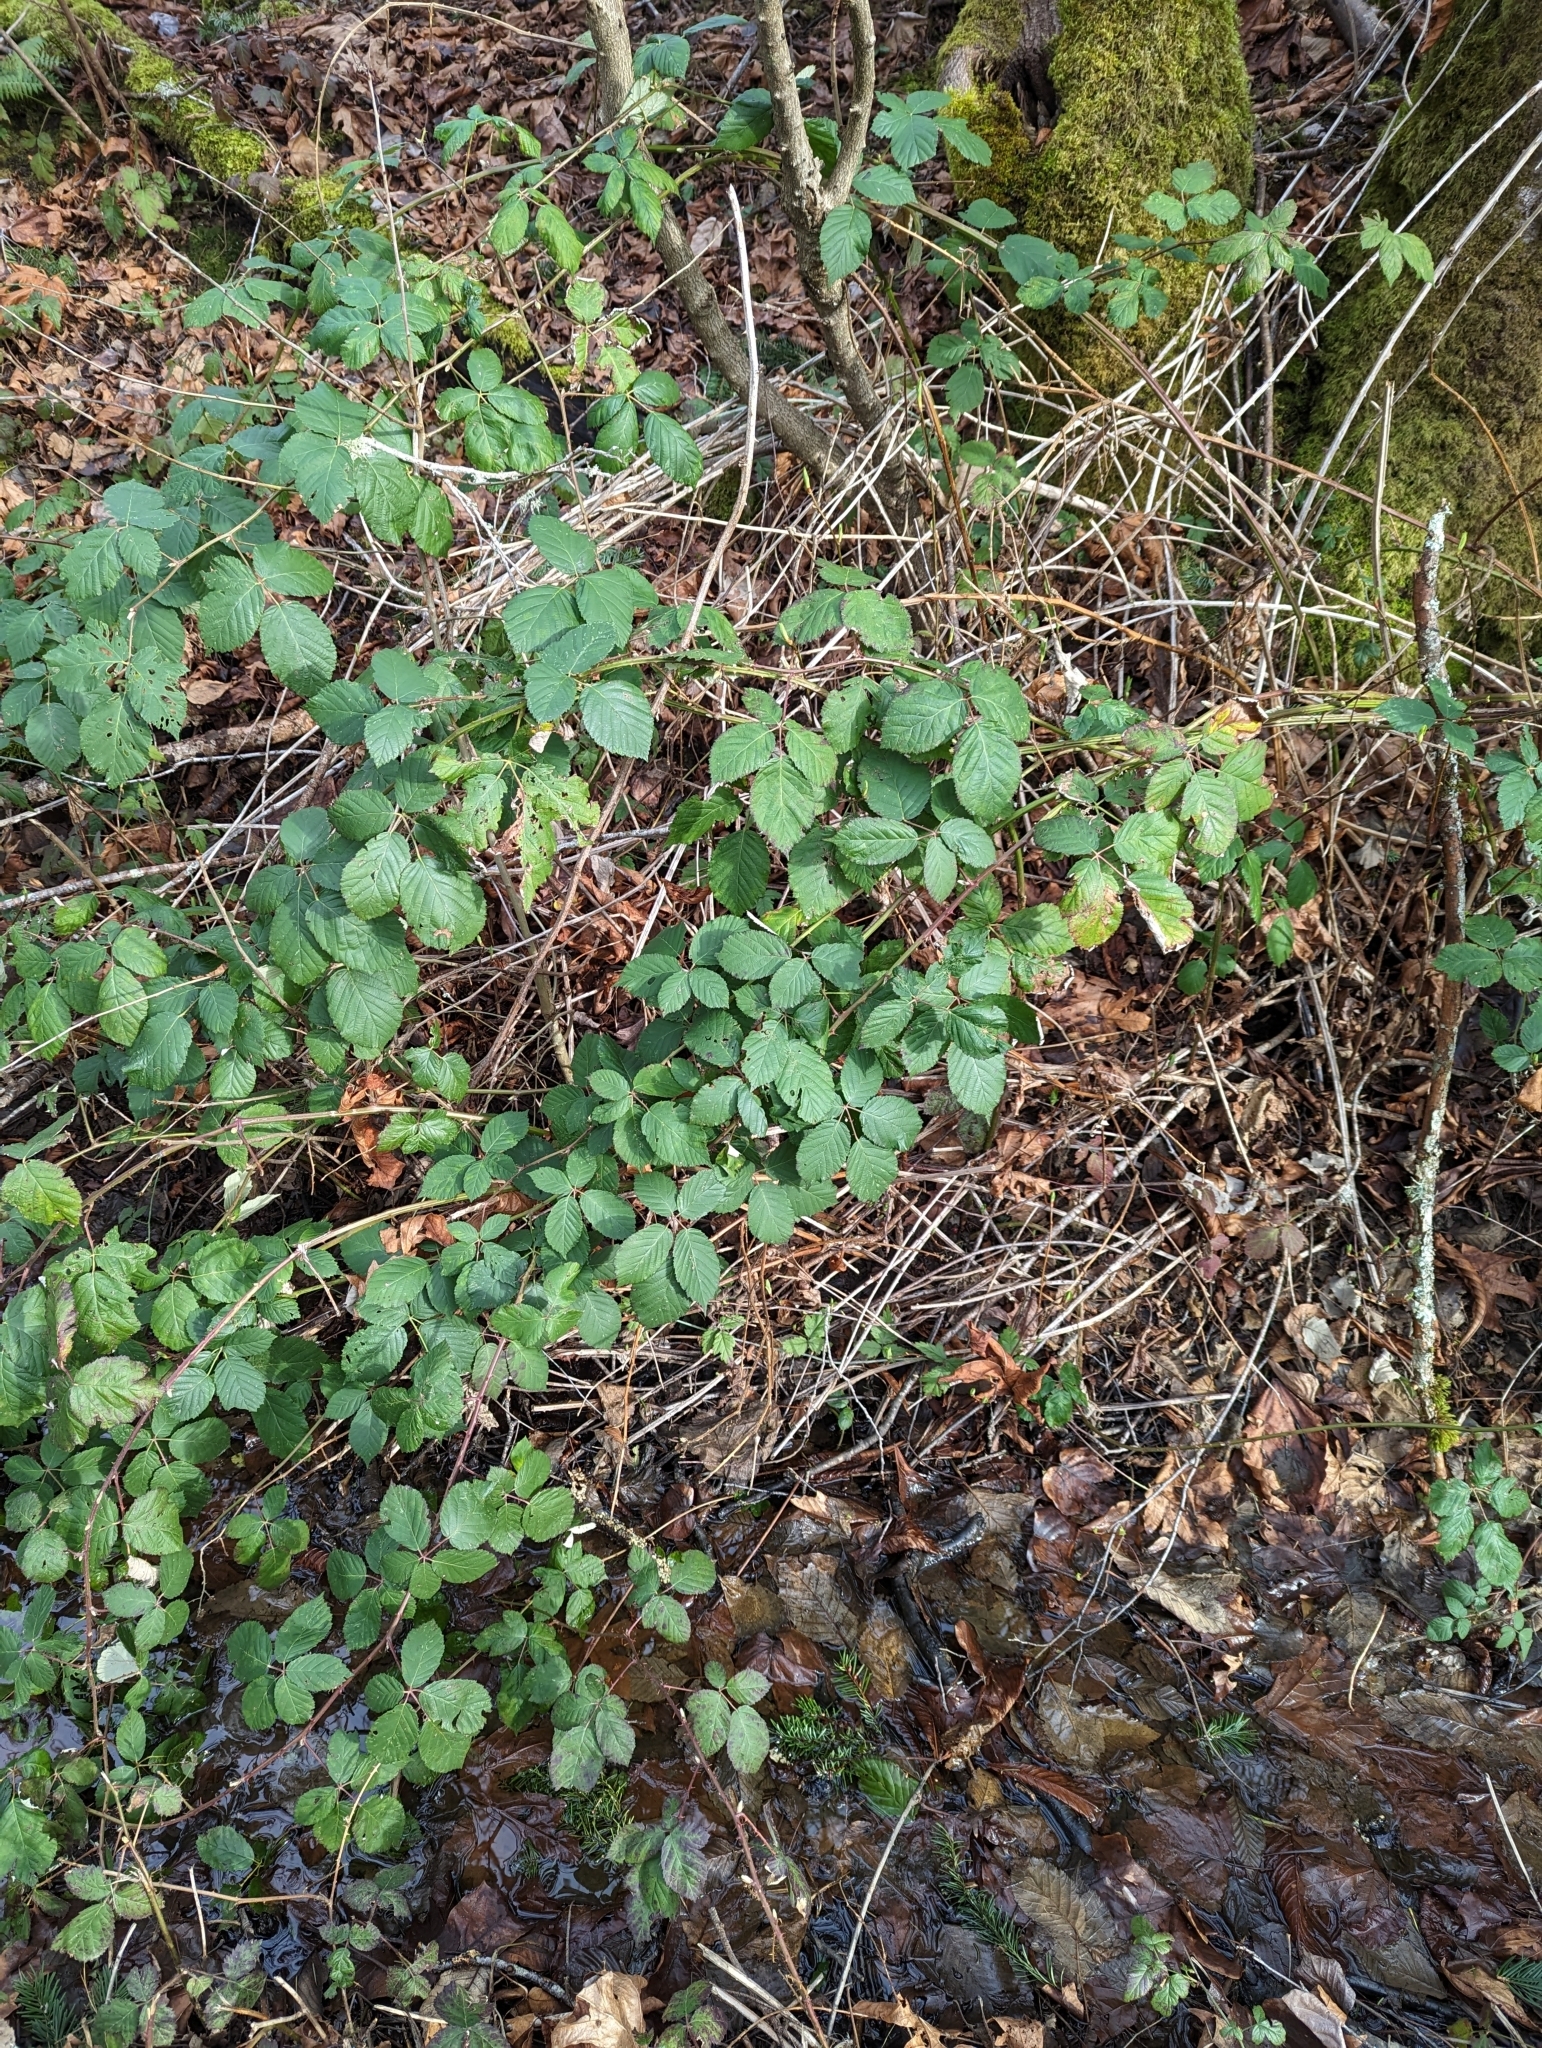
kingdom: Plantae
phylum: Tracheophyta
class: Magnoliopsida
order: Rosales
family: Rosaceae
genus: Rubus
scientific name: Rubus bifrons
